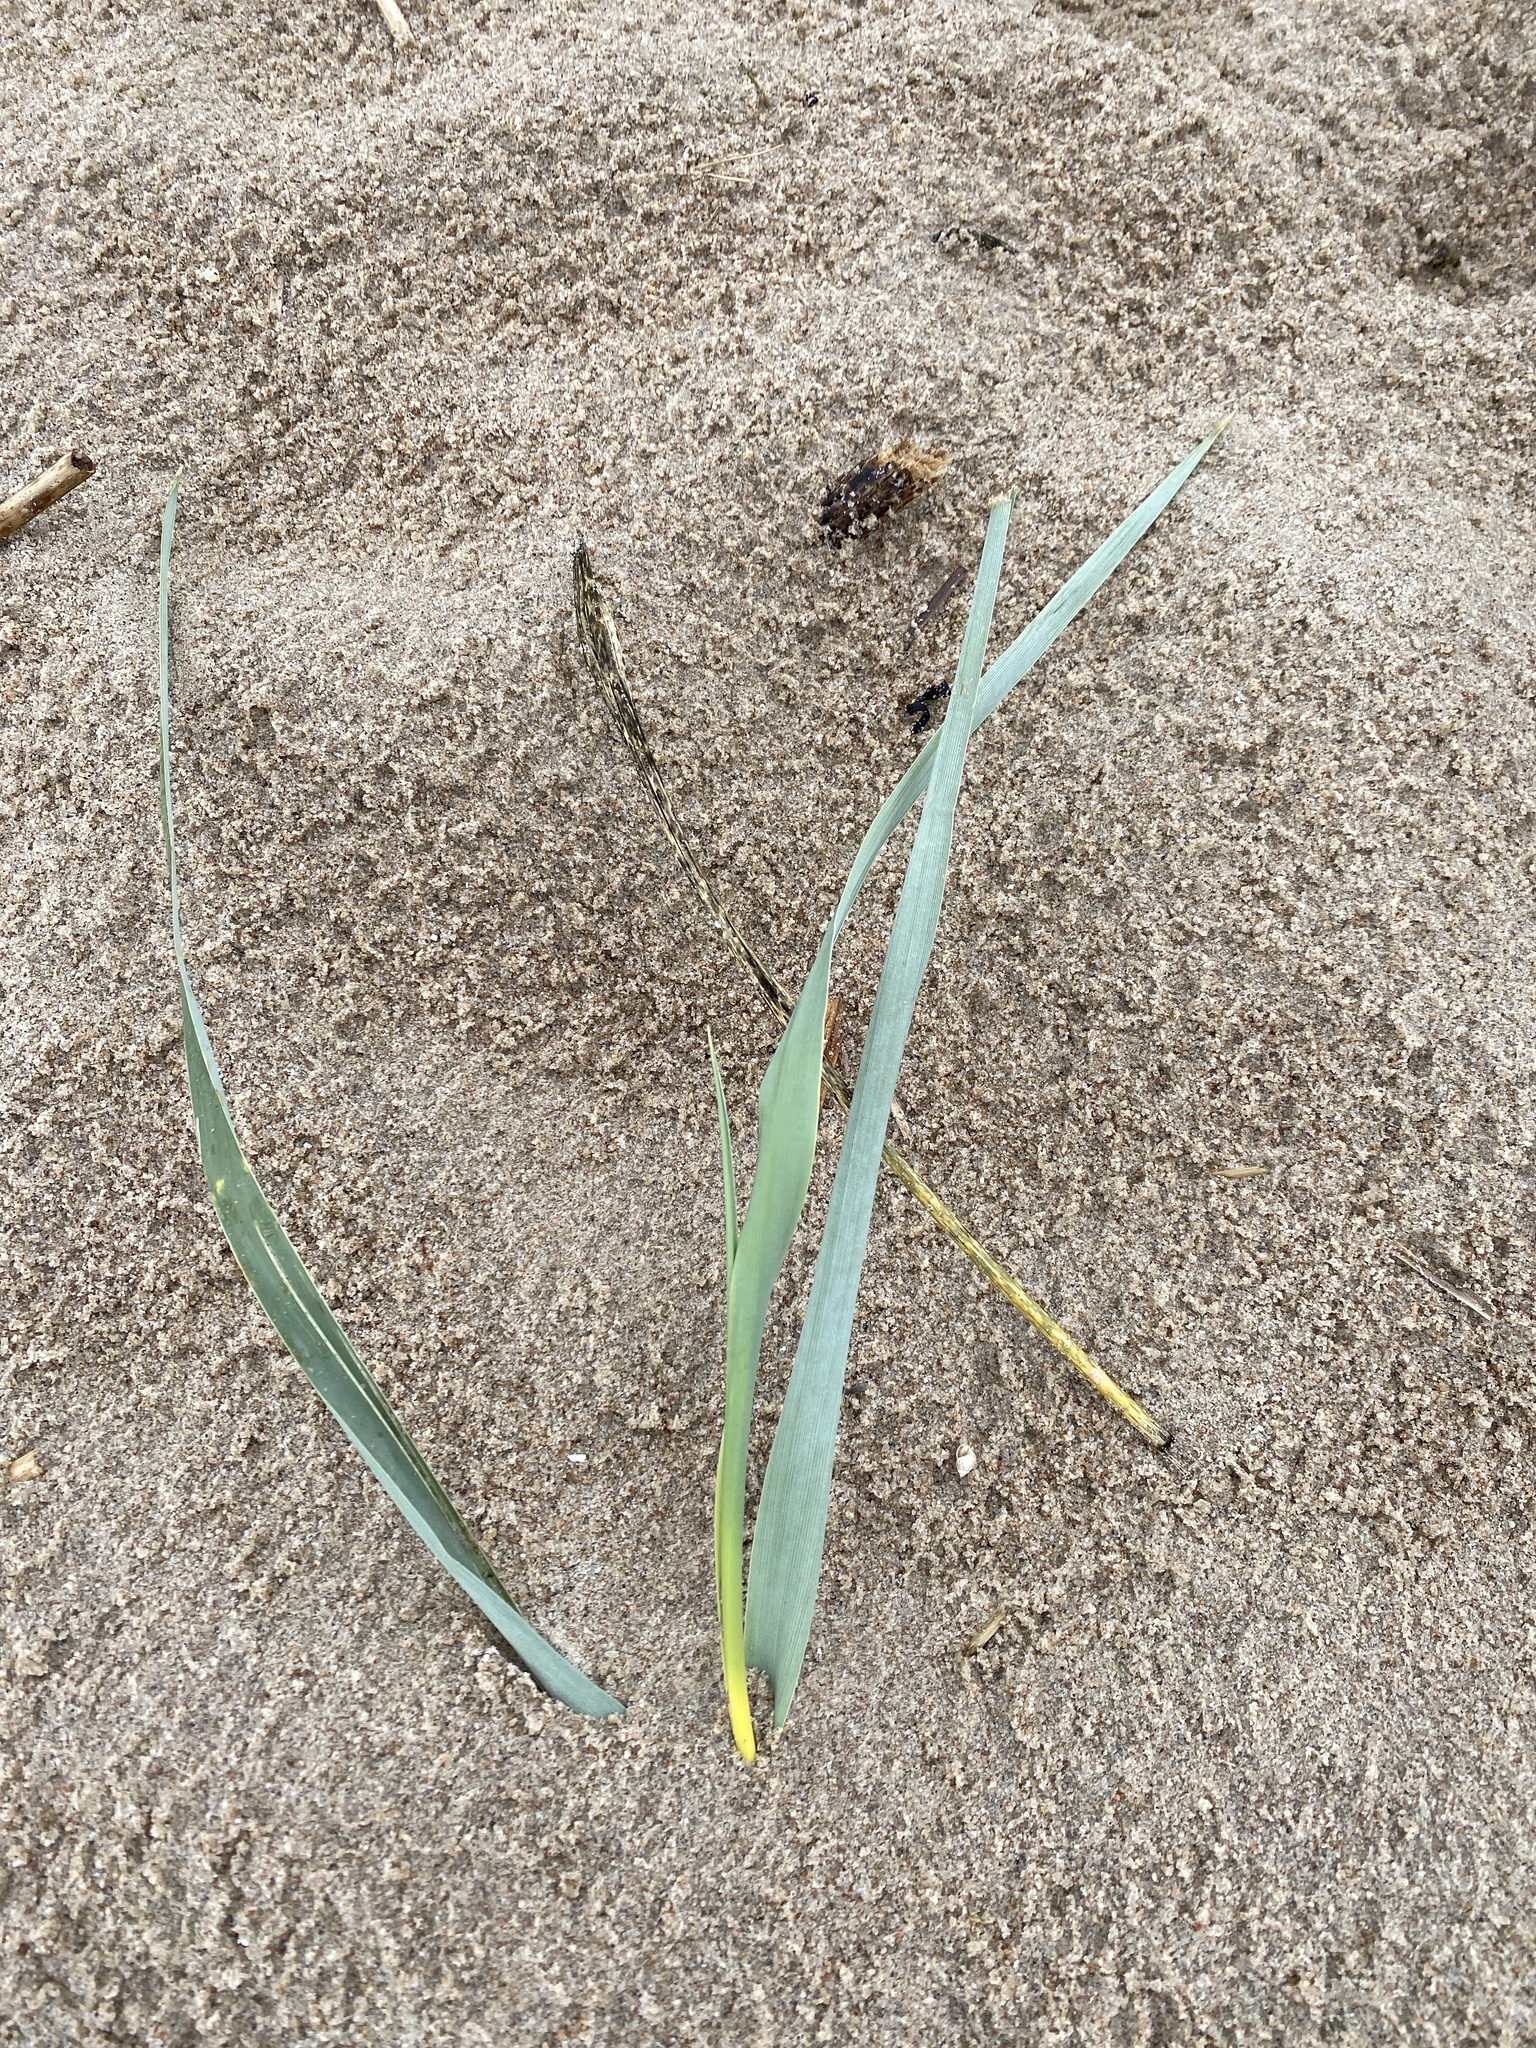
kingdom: Plantae
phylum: Tracheophyta
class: Liliopsida
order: Poales
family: Poaceae
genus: Leymus
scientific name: Leymus arenarius
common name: Lyme-grass
